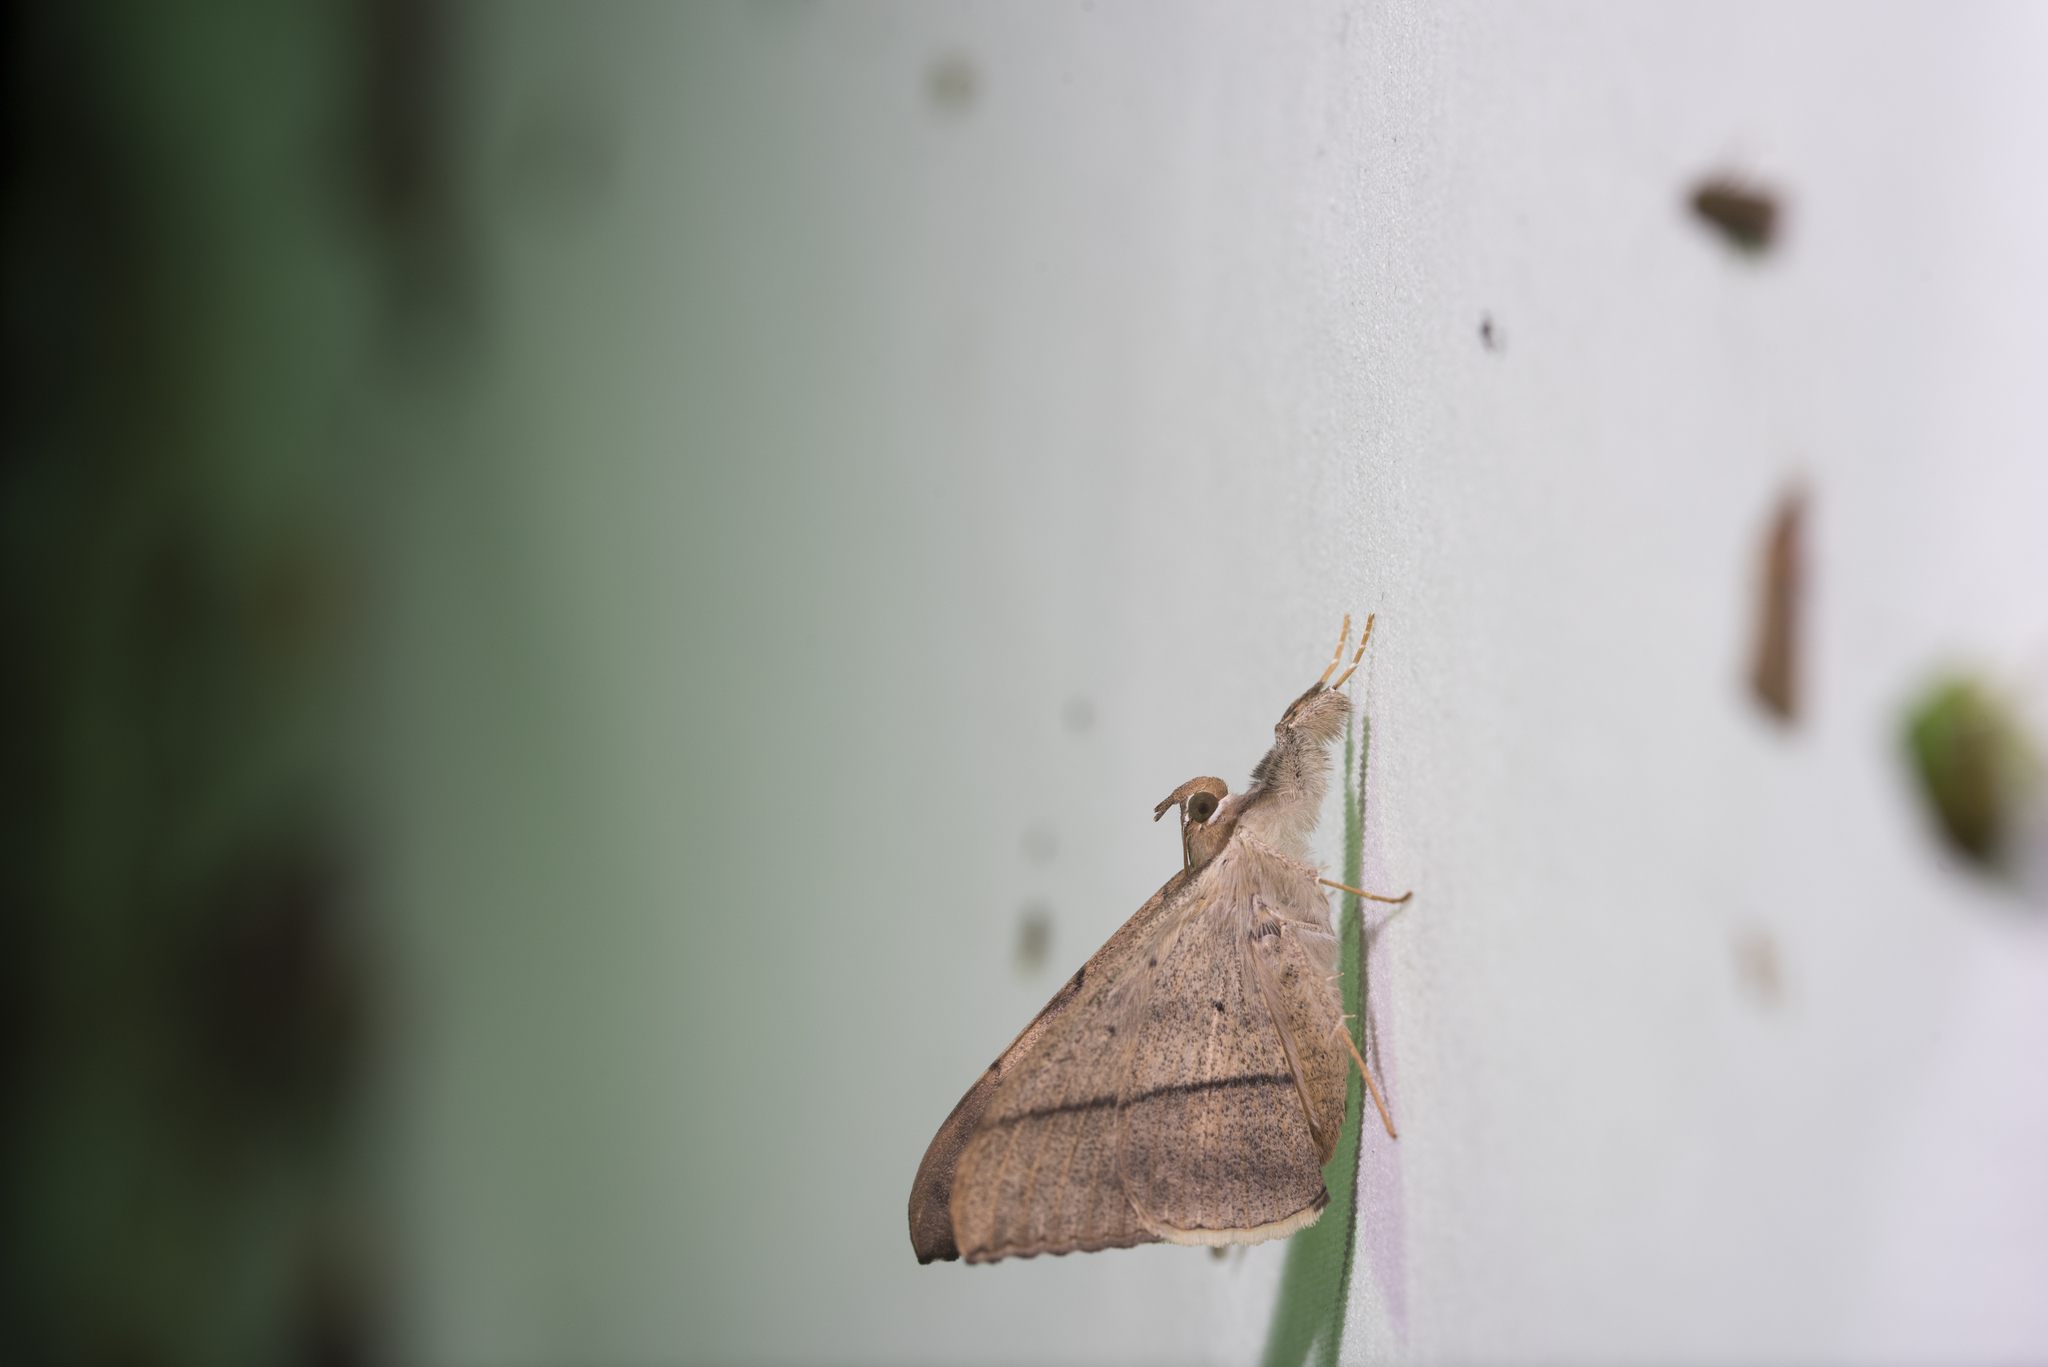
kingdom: Animalia
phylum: Arthropoda
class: Insecta
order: Lepidoptera
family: Erebidae
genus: Oxyodes
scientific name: Oxyodes scrobiculata
